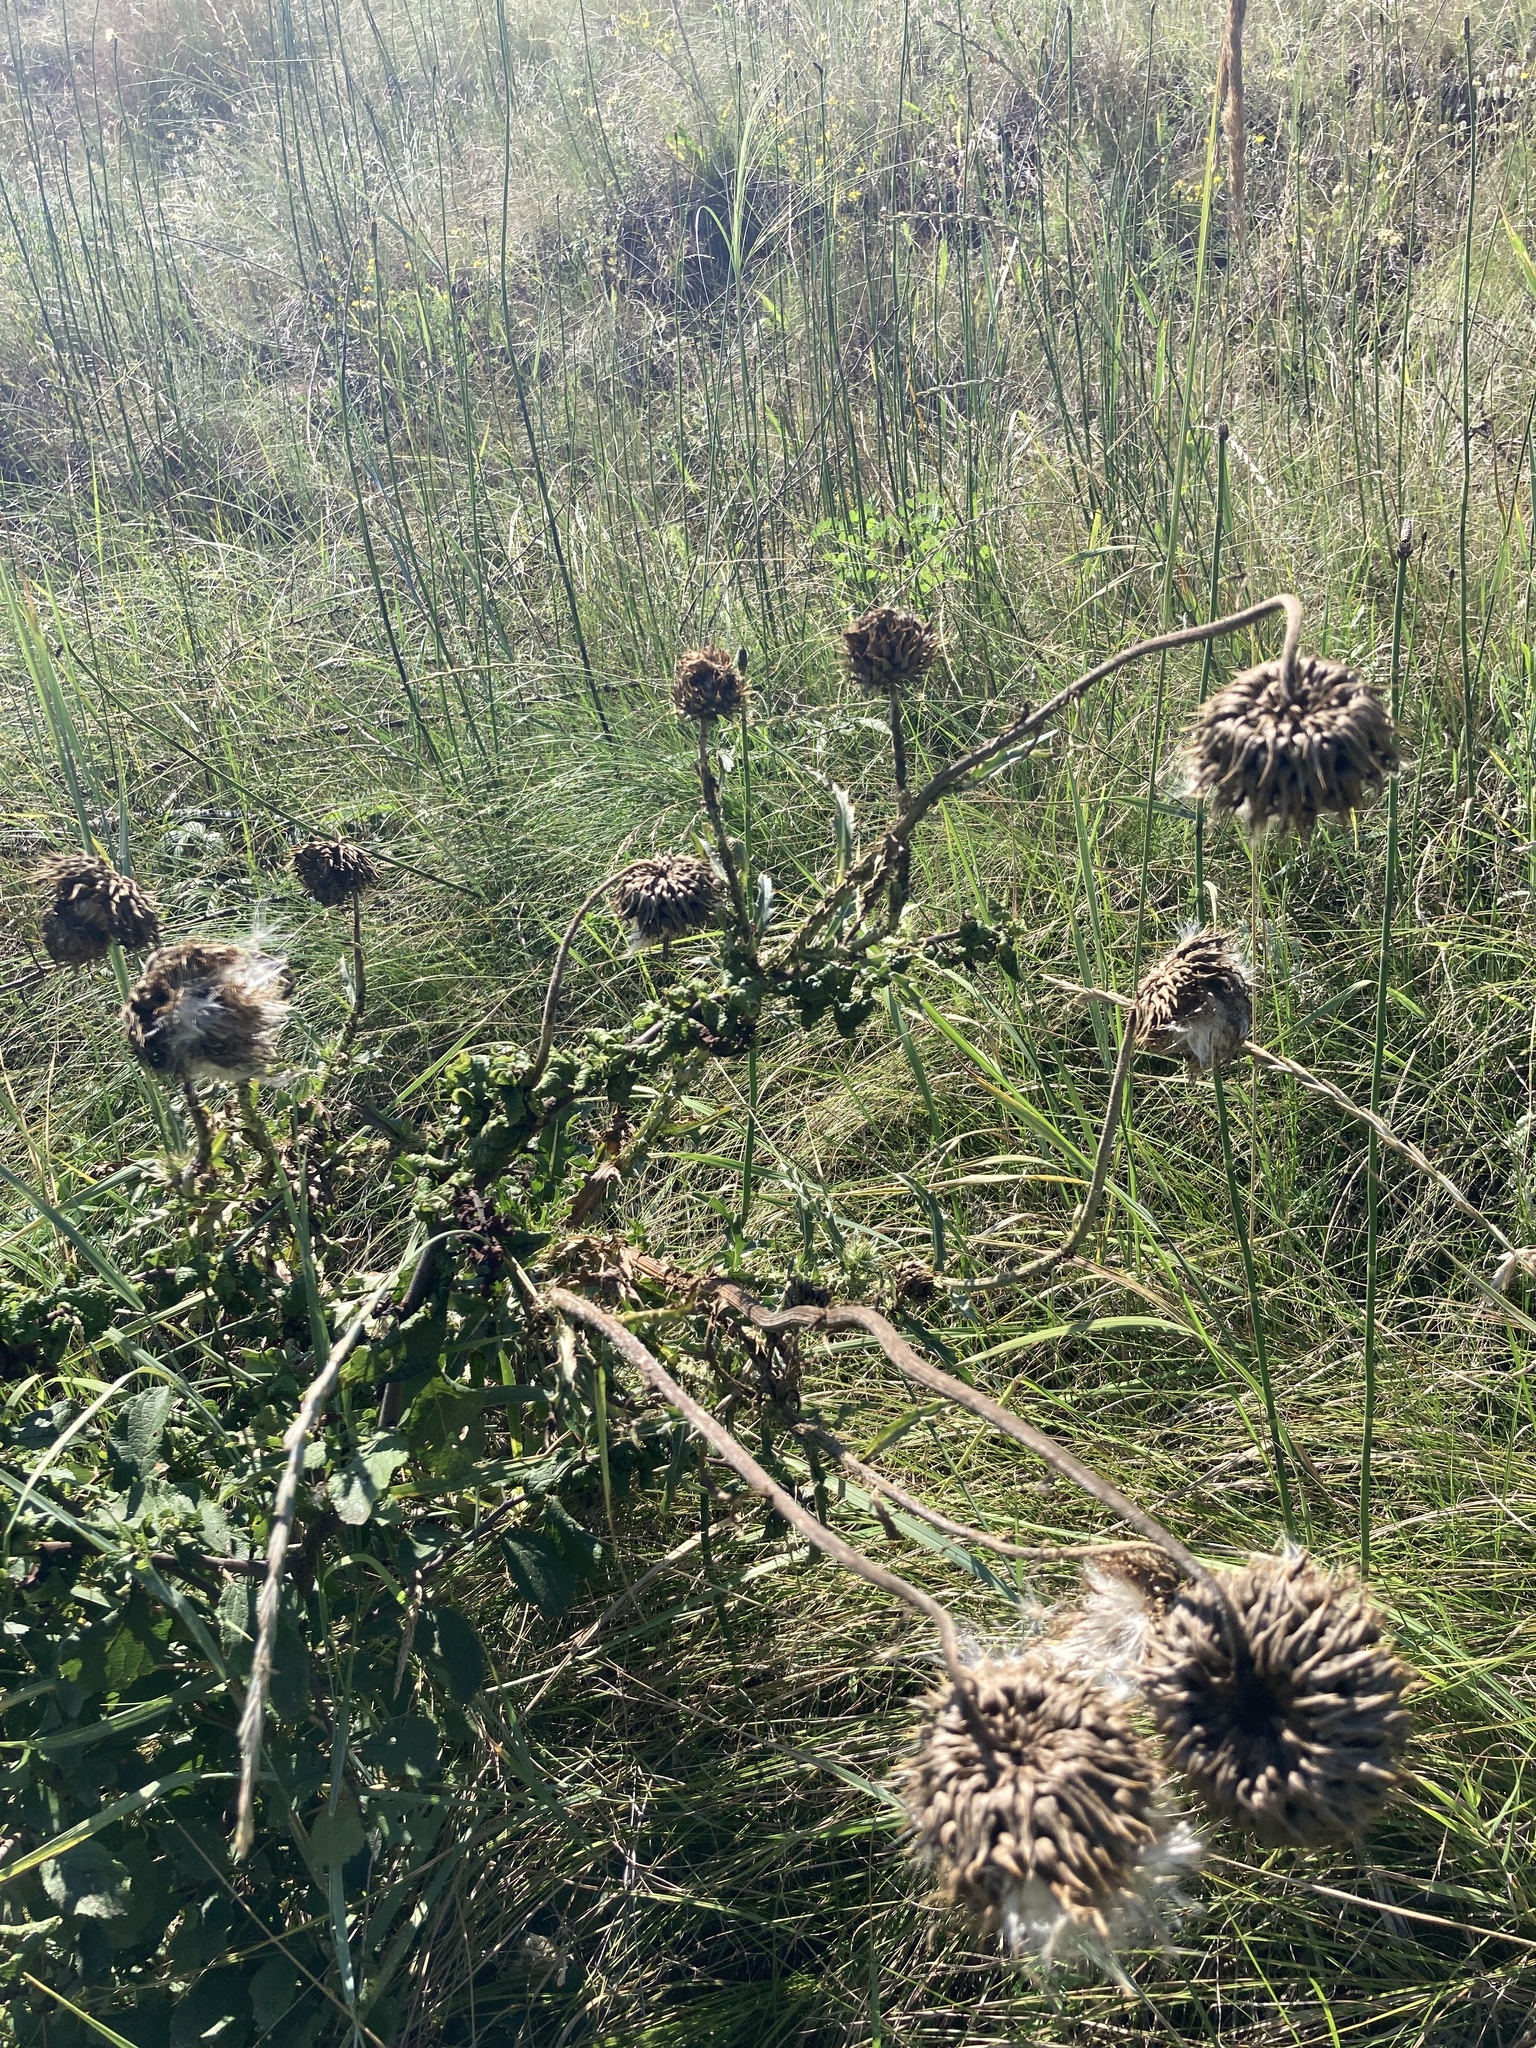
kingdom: Plantae
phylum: Tracheophyta
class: Magnoliopsida
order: Asterales
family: Asteraceae
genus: Carduus
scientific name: Carduus nutans
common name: Musk thistle
